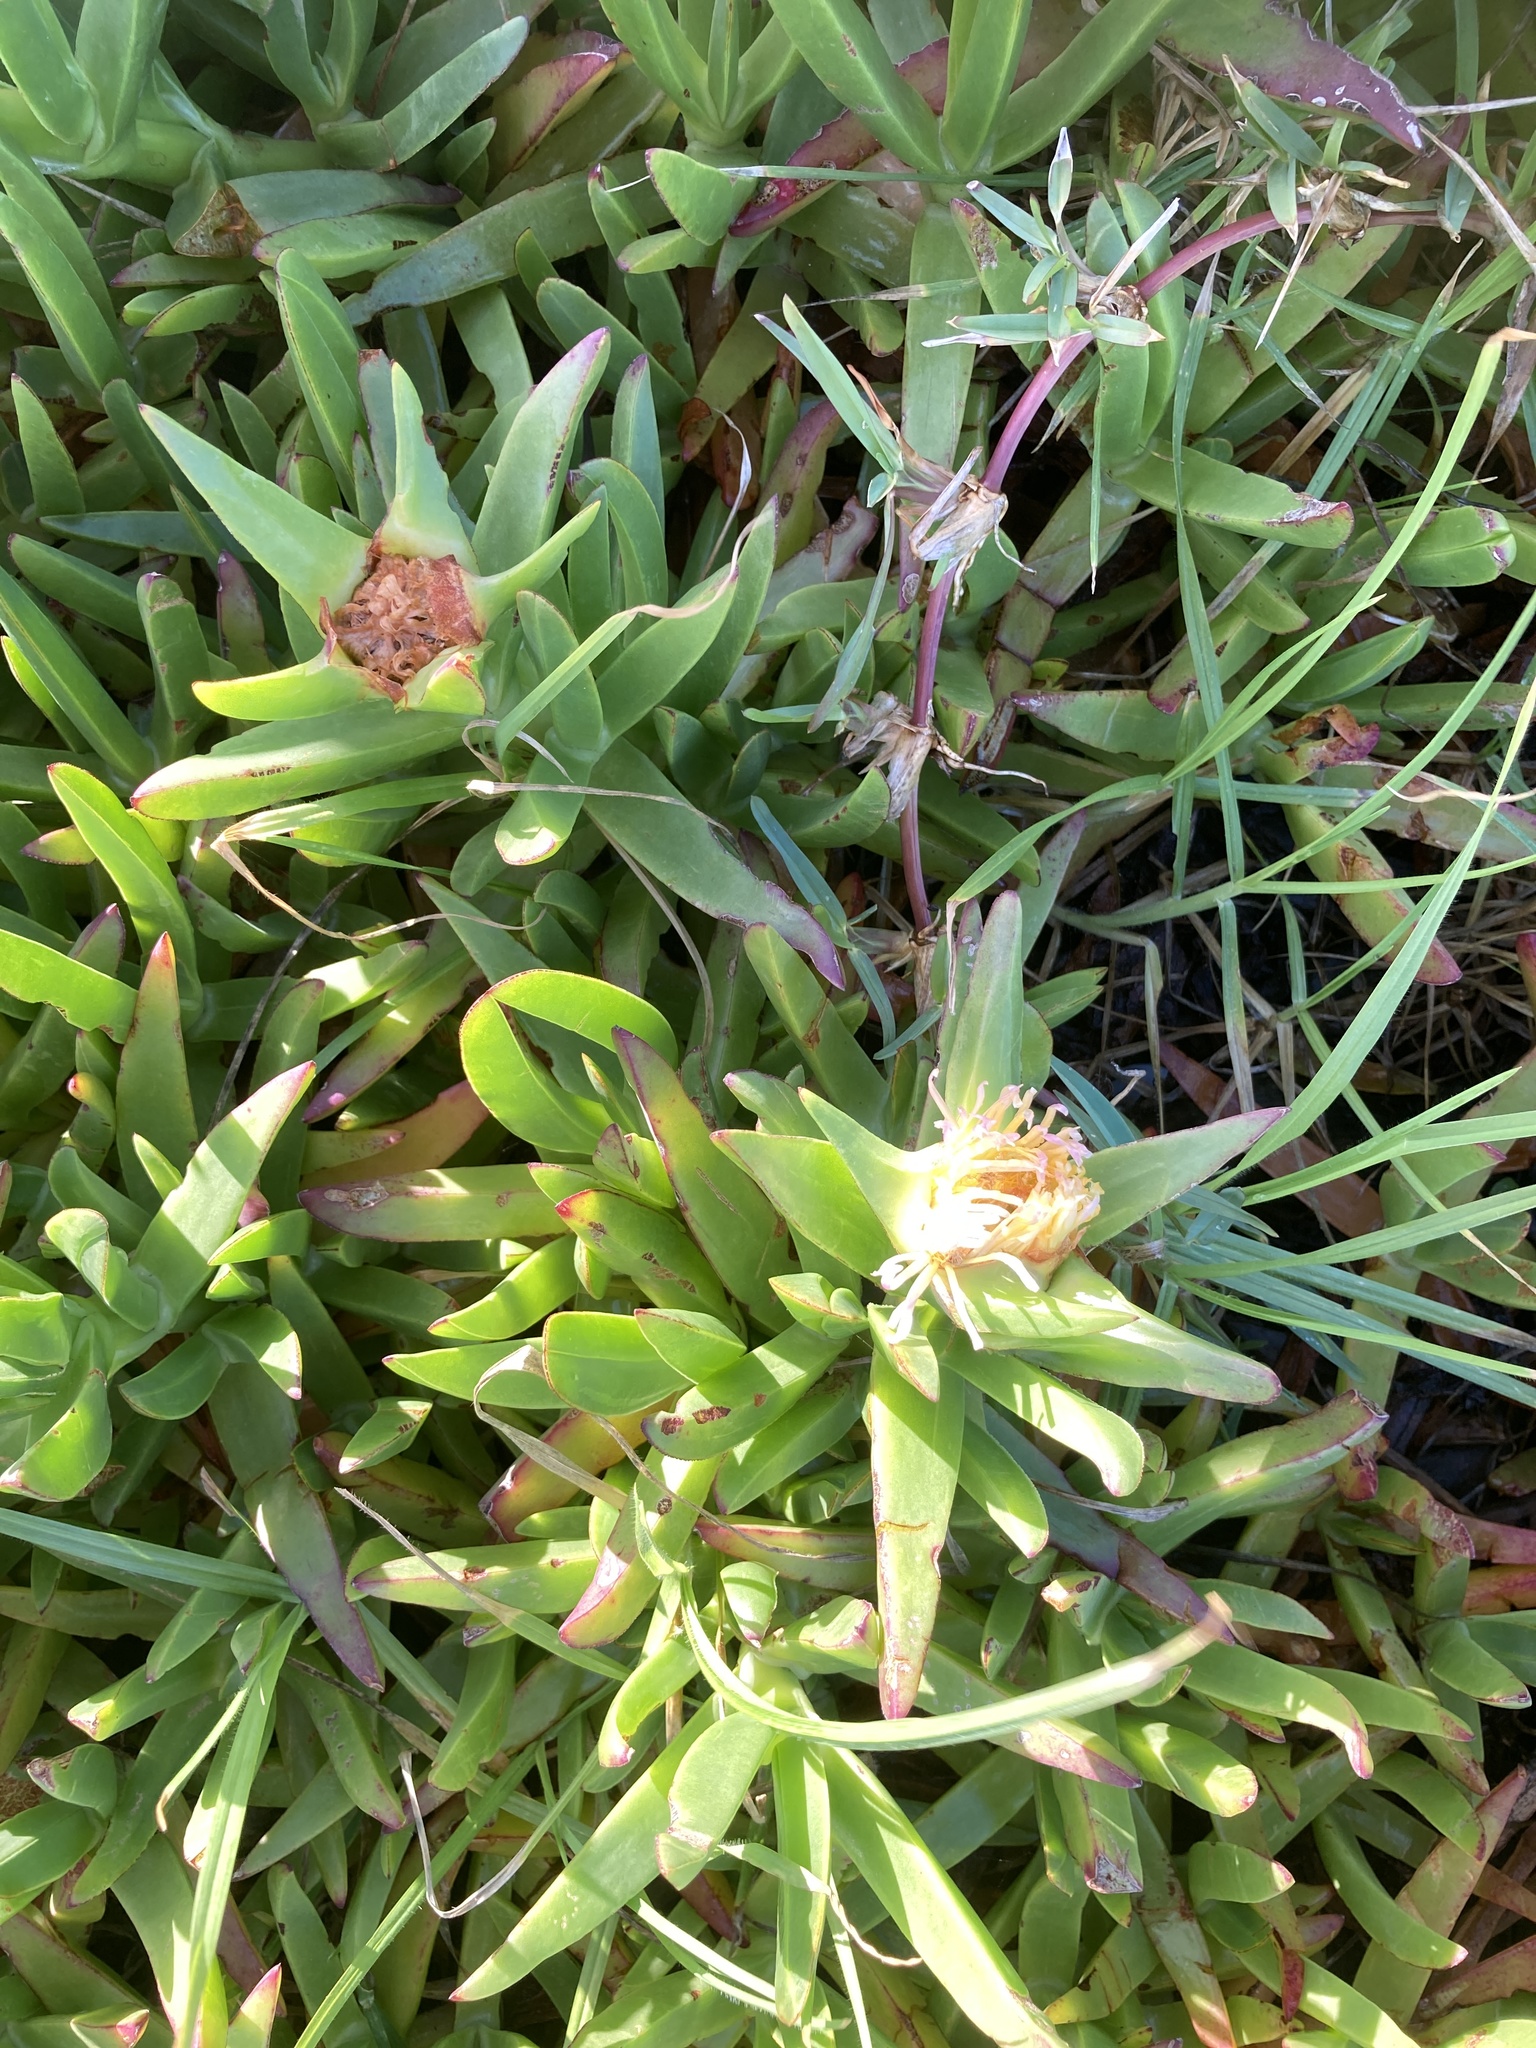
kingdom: Plantae
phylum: Tracheophyta
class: Magnoliopsida
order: Caryophyllales
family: Aizoaceae
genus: Carpobrotus
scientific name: Carpobrotus edulis
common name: Hottentot-fig
